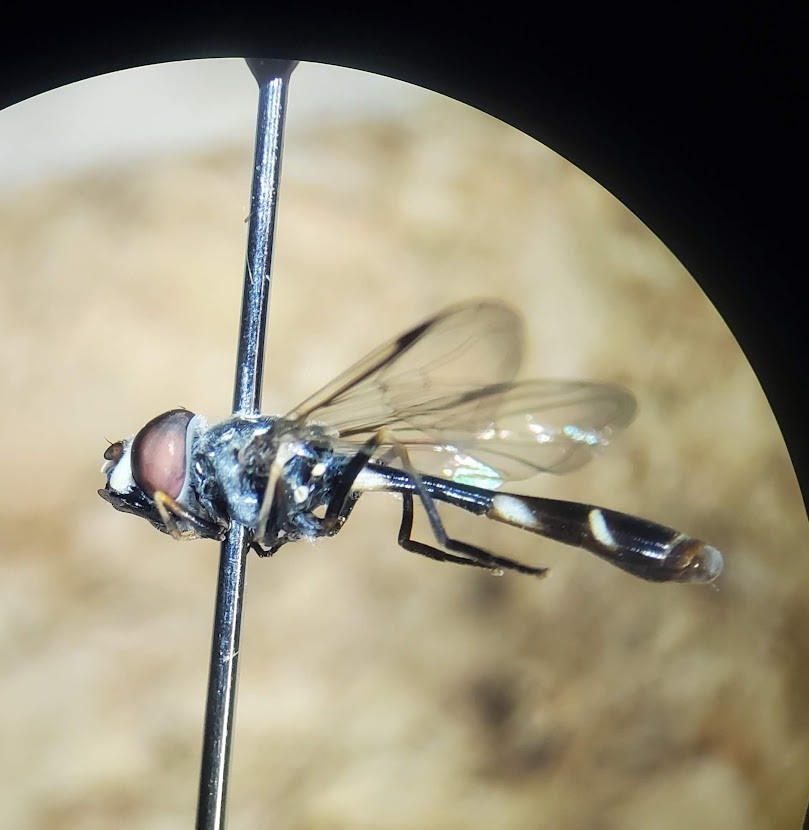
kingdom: Animalia
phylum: Arthropoda
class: Insecta
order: Diptera
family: Syrphidae
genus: Dioprosopa
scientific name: Dioprosopa clavatus
